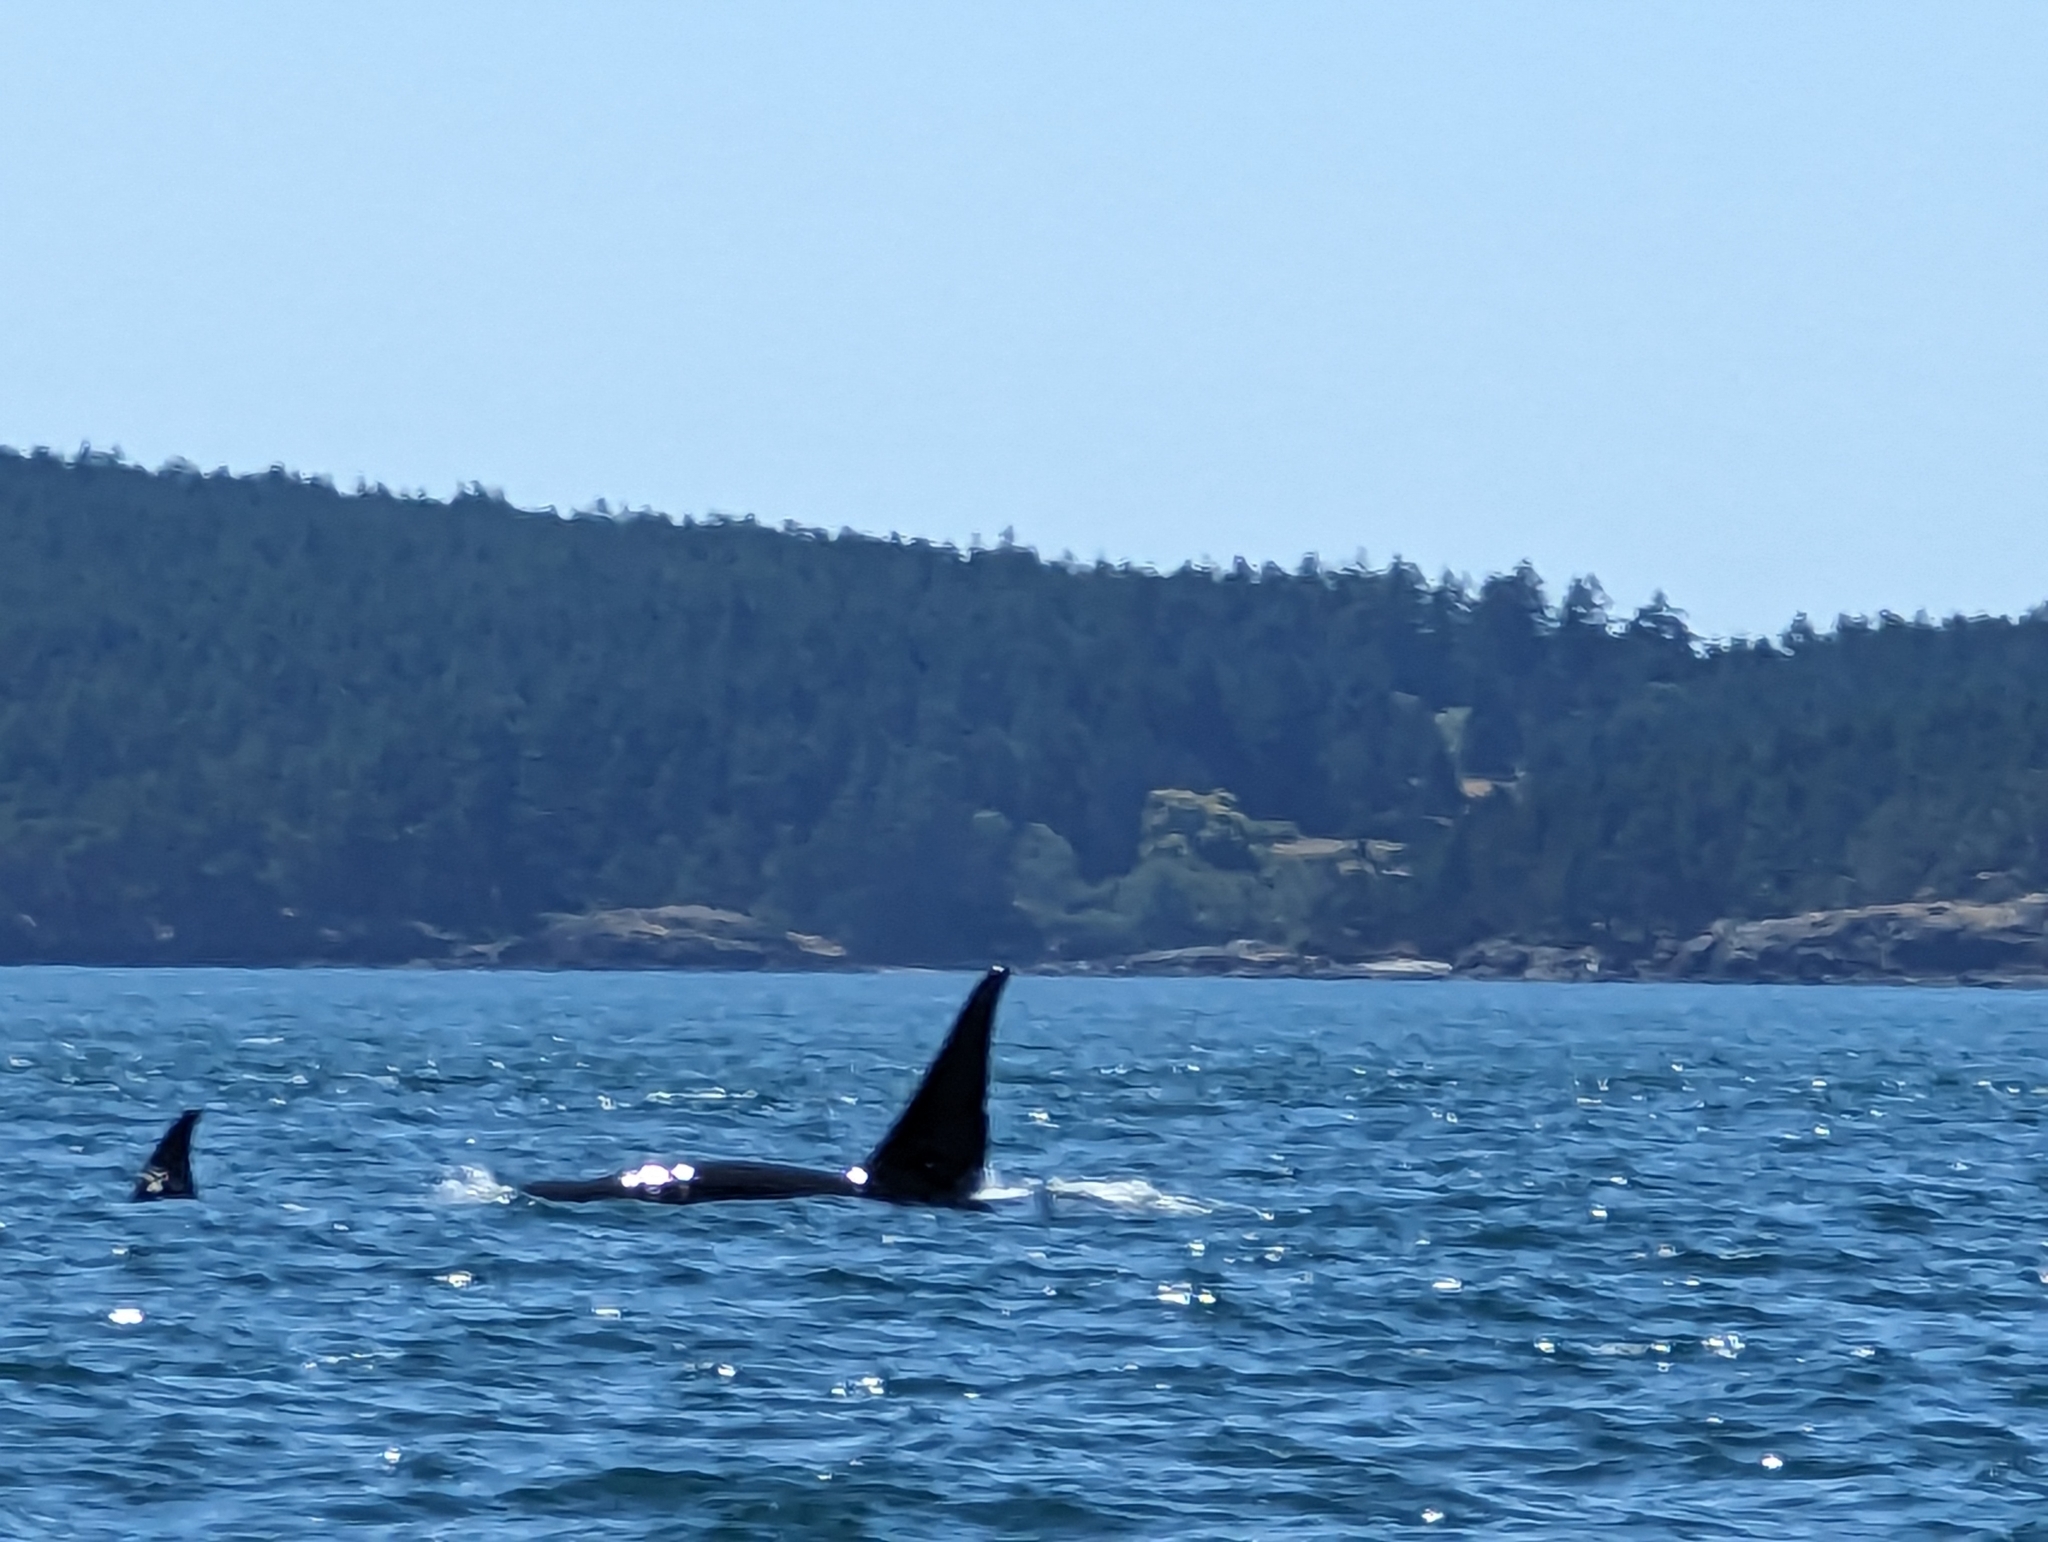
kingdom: Animalia
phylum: Chordata
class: Mammalia
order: Cetacea
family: Delphinidae
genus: Orcinus
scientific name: Orcinus orca
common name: Killer whale
